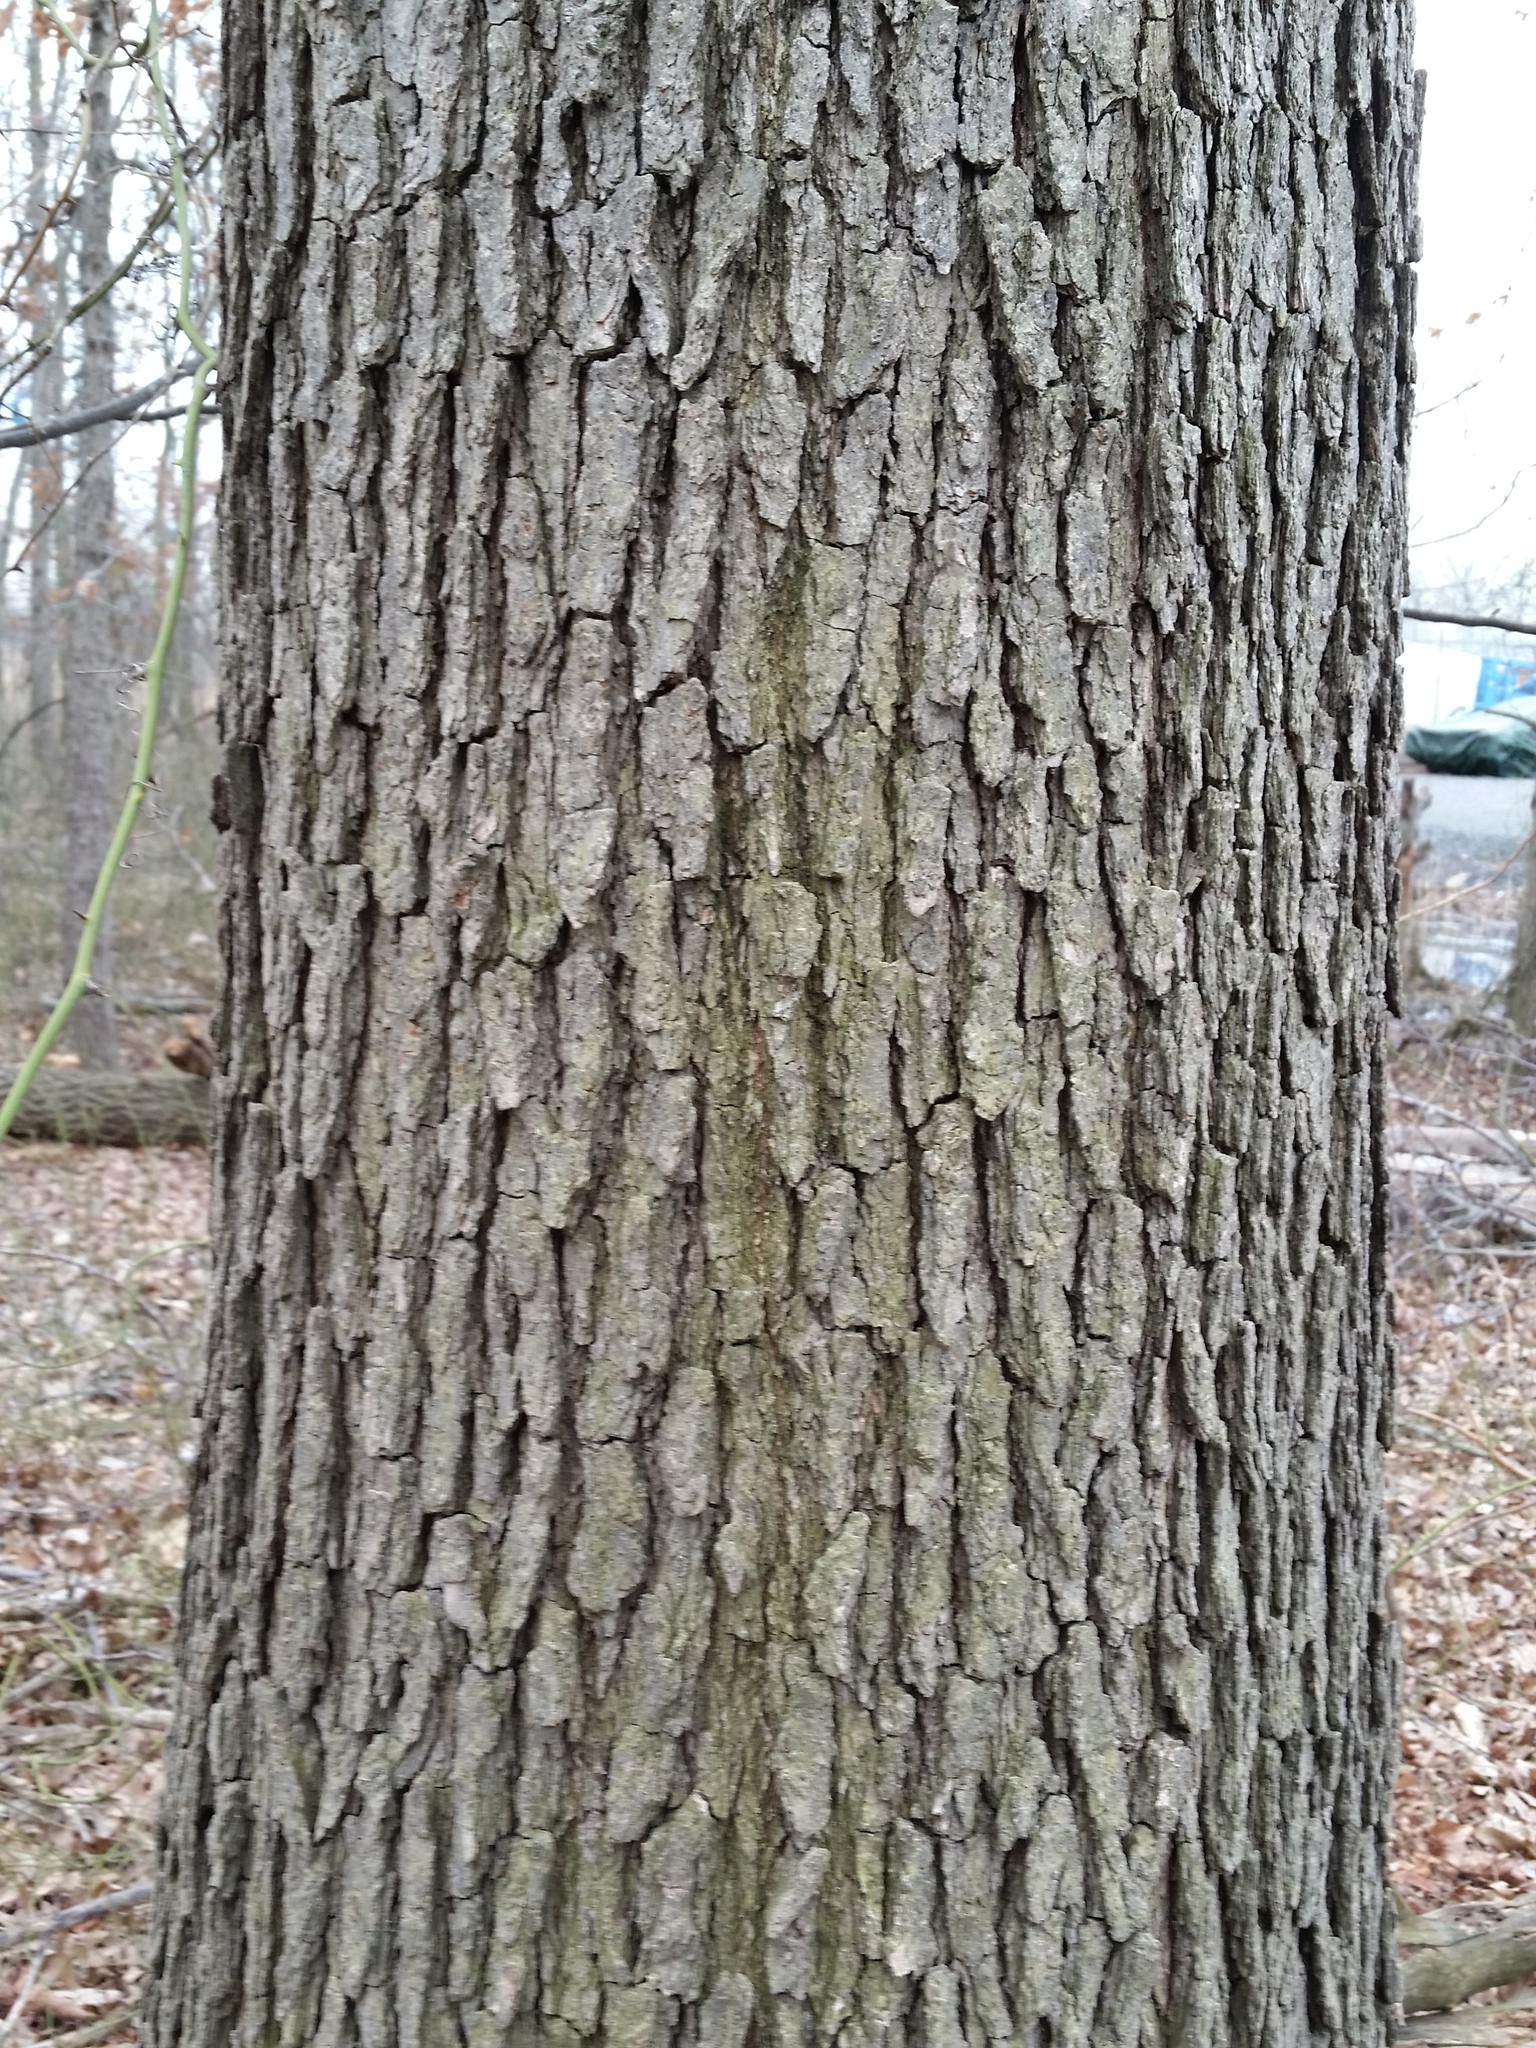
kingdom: Plantae
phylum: Tracheophyta
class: Magnoliopsida
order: Fagales
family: Fagaceae
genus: Quercus
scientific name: Quercus bicolor
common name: Swamp white oak
